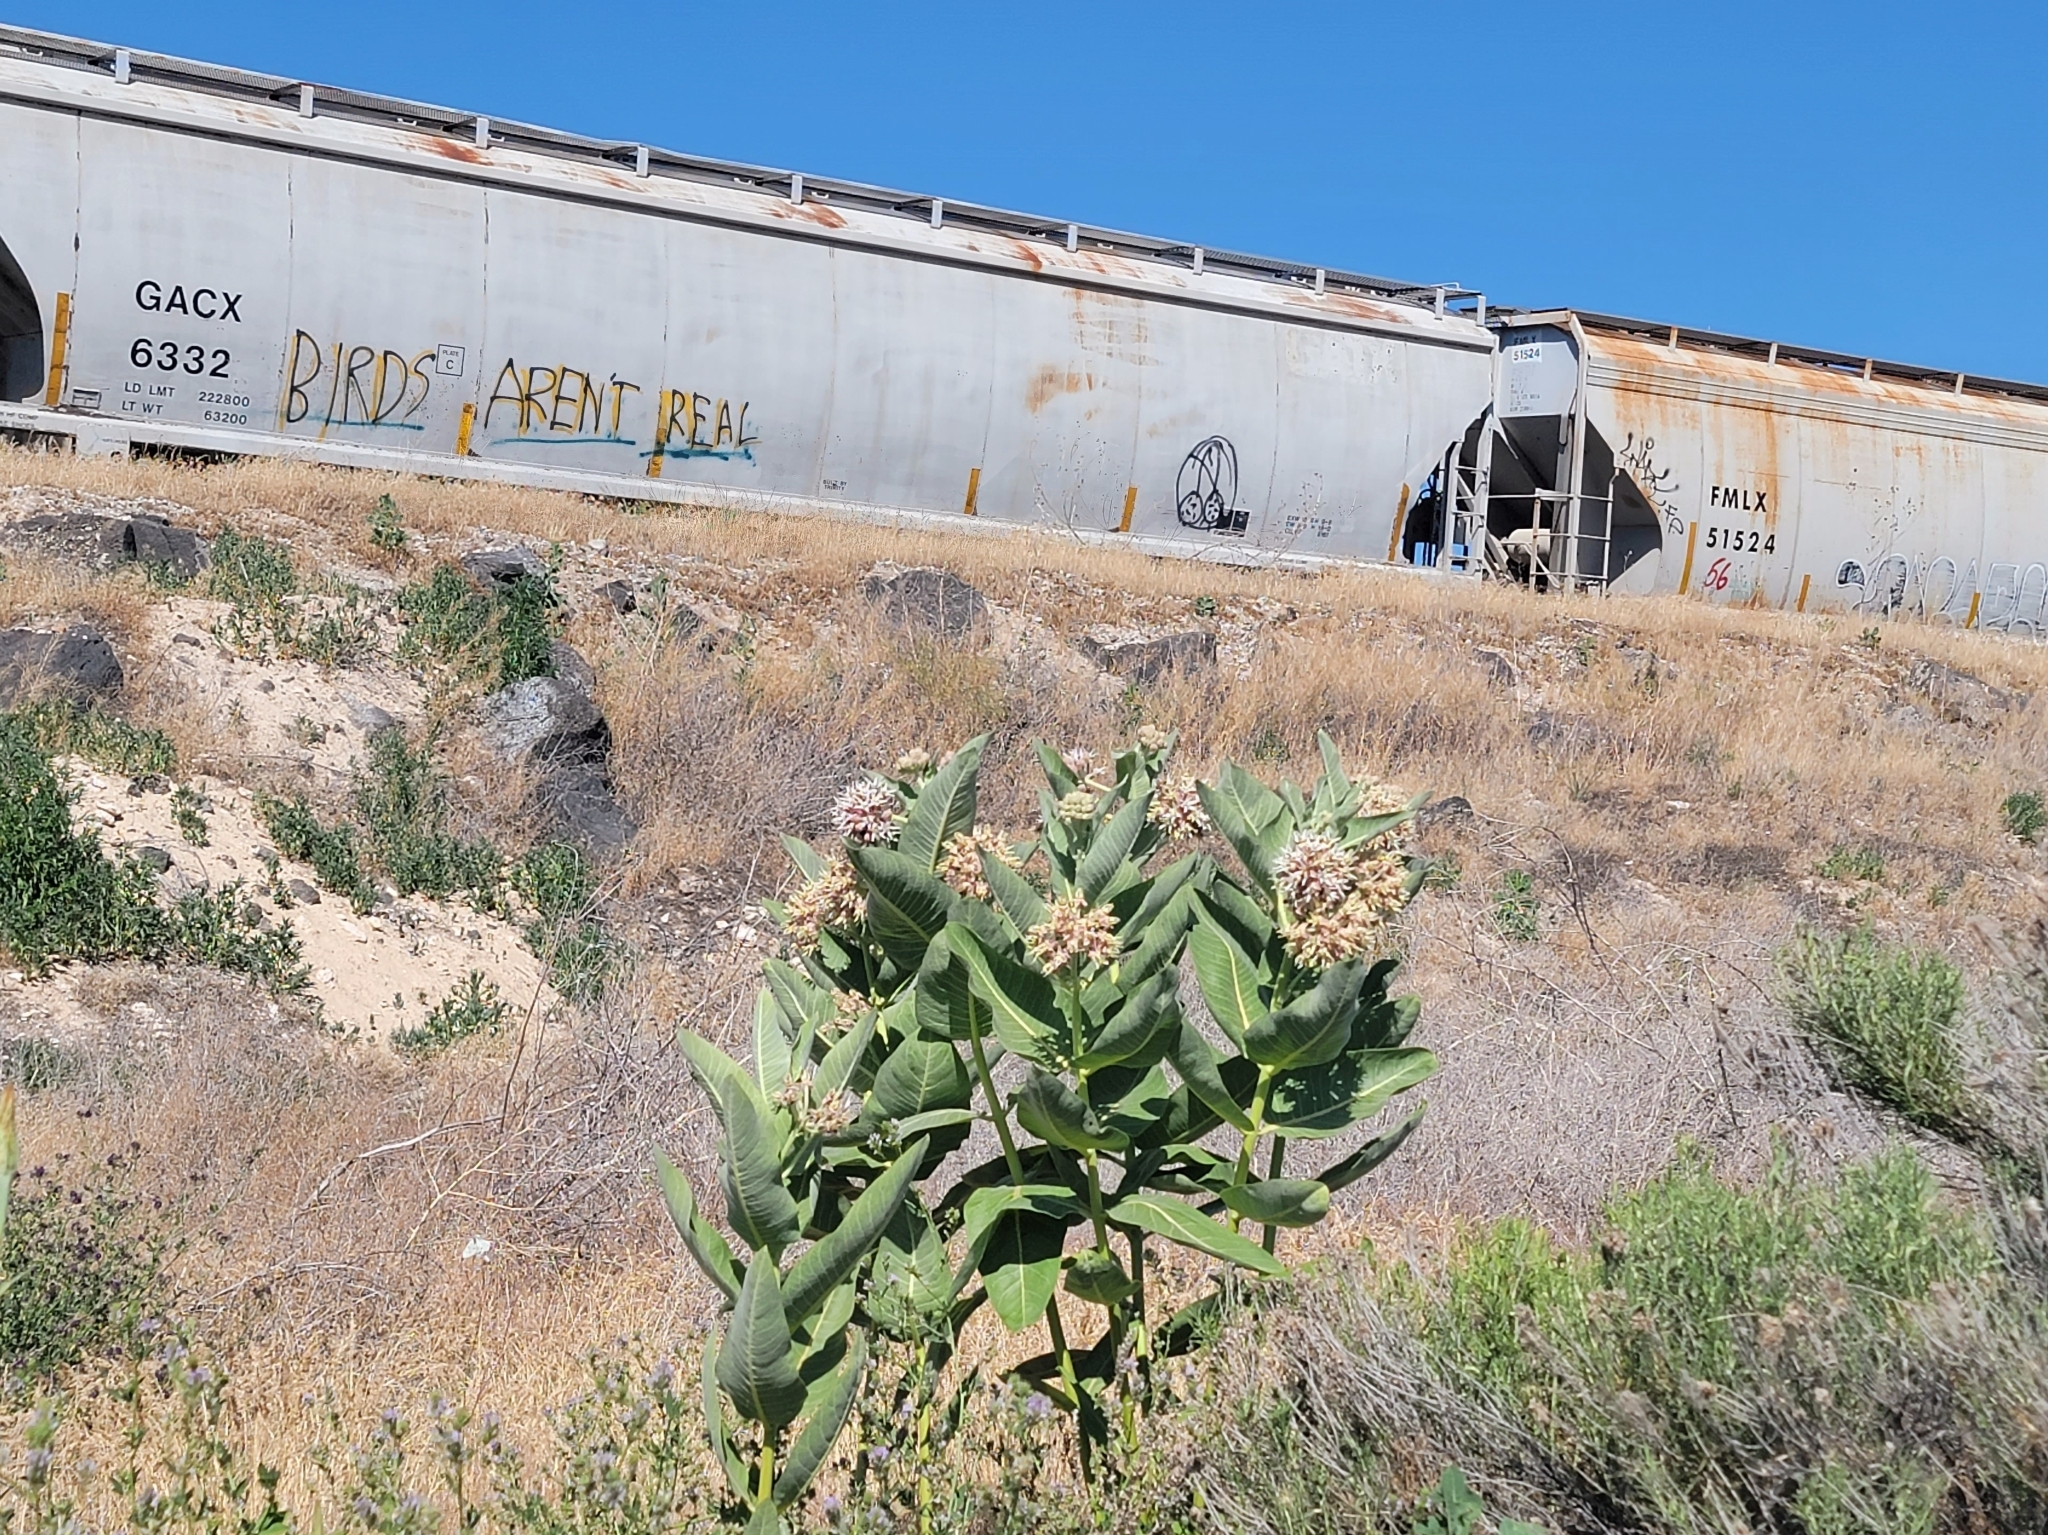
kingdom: Plantae
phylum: Tracheophyta
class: Magnoliopsida
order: Gentianales
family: Apocynaceae
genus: Asclepias
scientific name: Asclepias speciosa
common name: Showy milkweed
